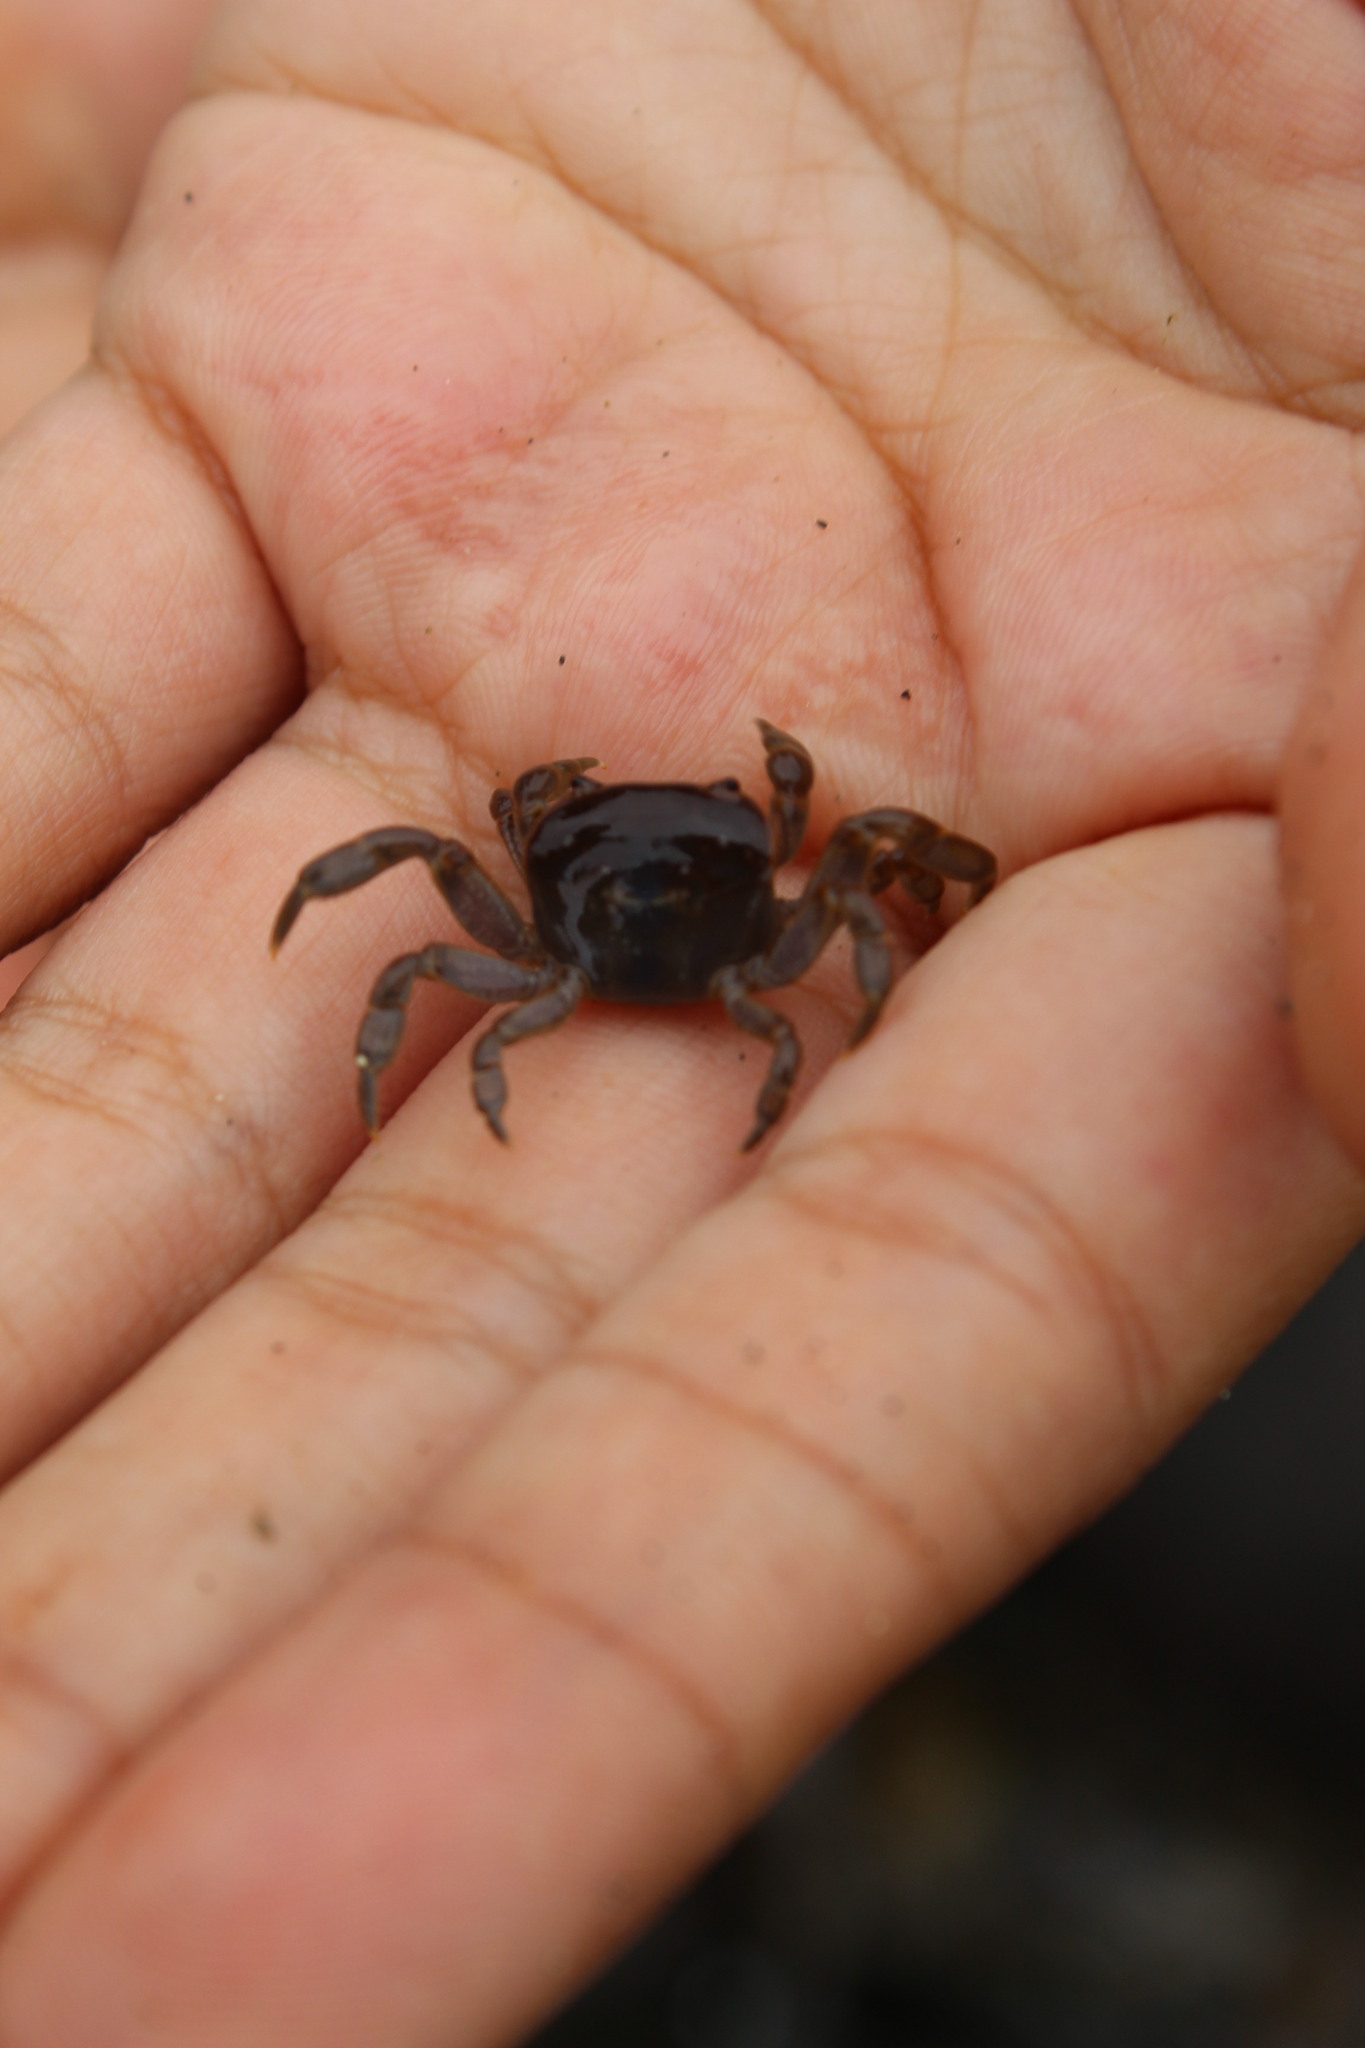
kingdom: Animalia
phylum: Arthropoda
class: Malacostraca
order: Decapoda
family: Varunidae
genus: Cyclograpsus
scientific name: Cyclograpsus cinereus
